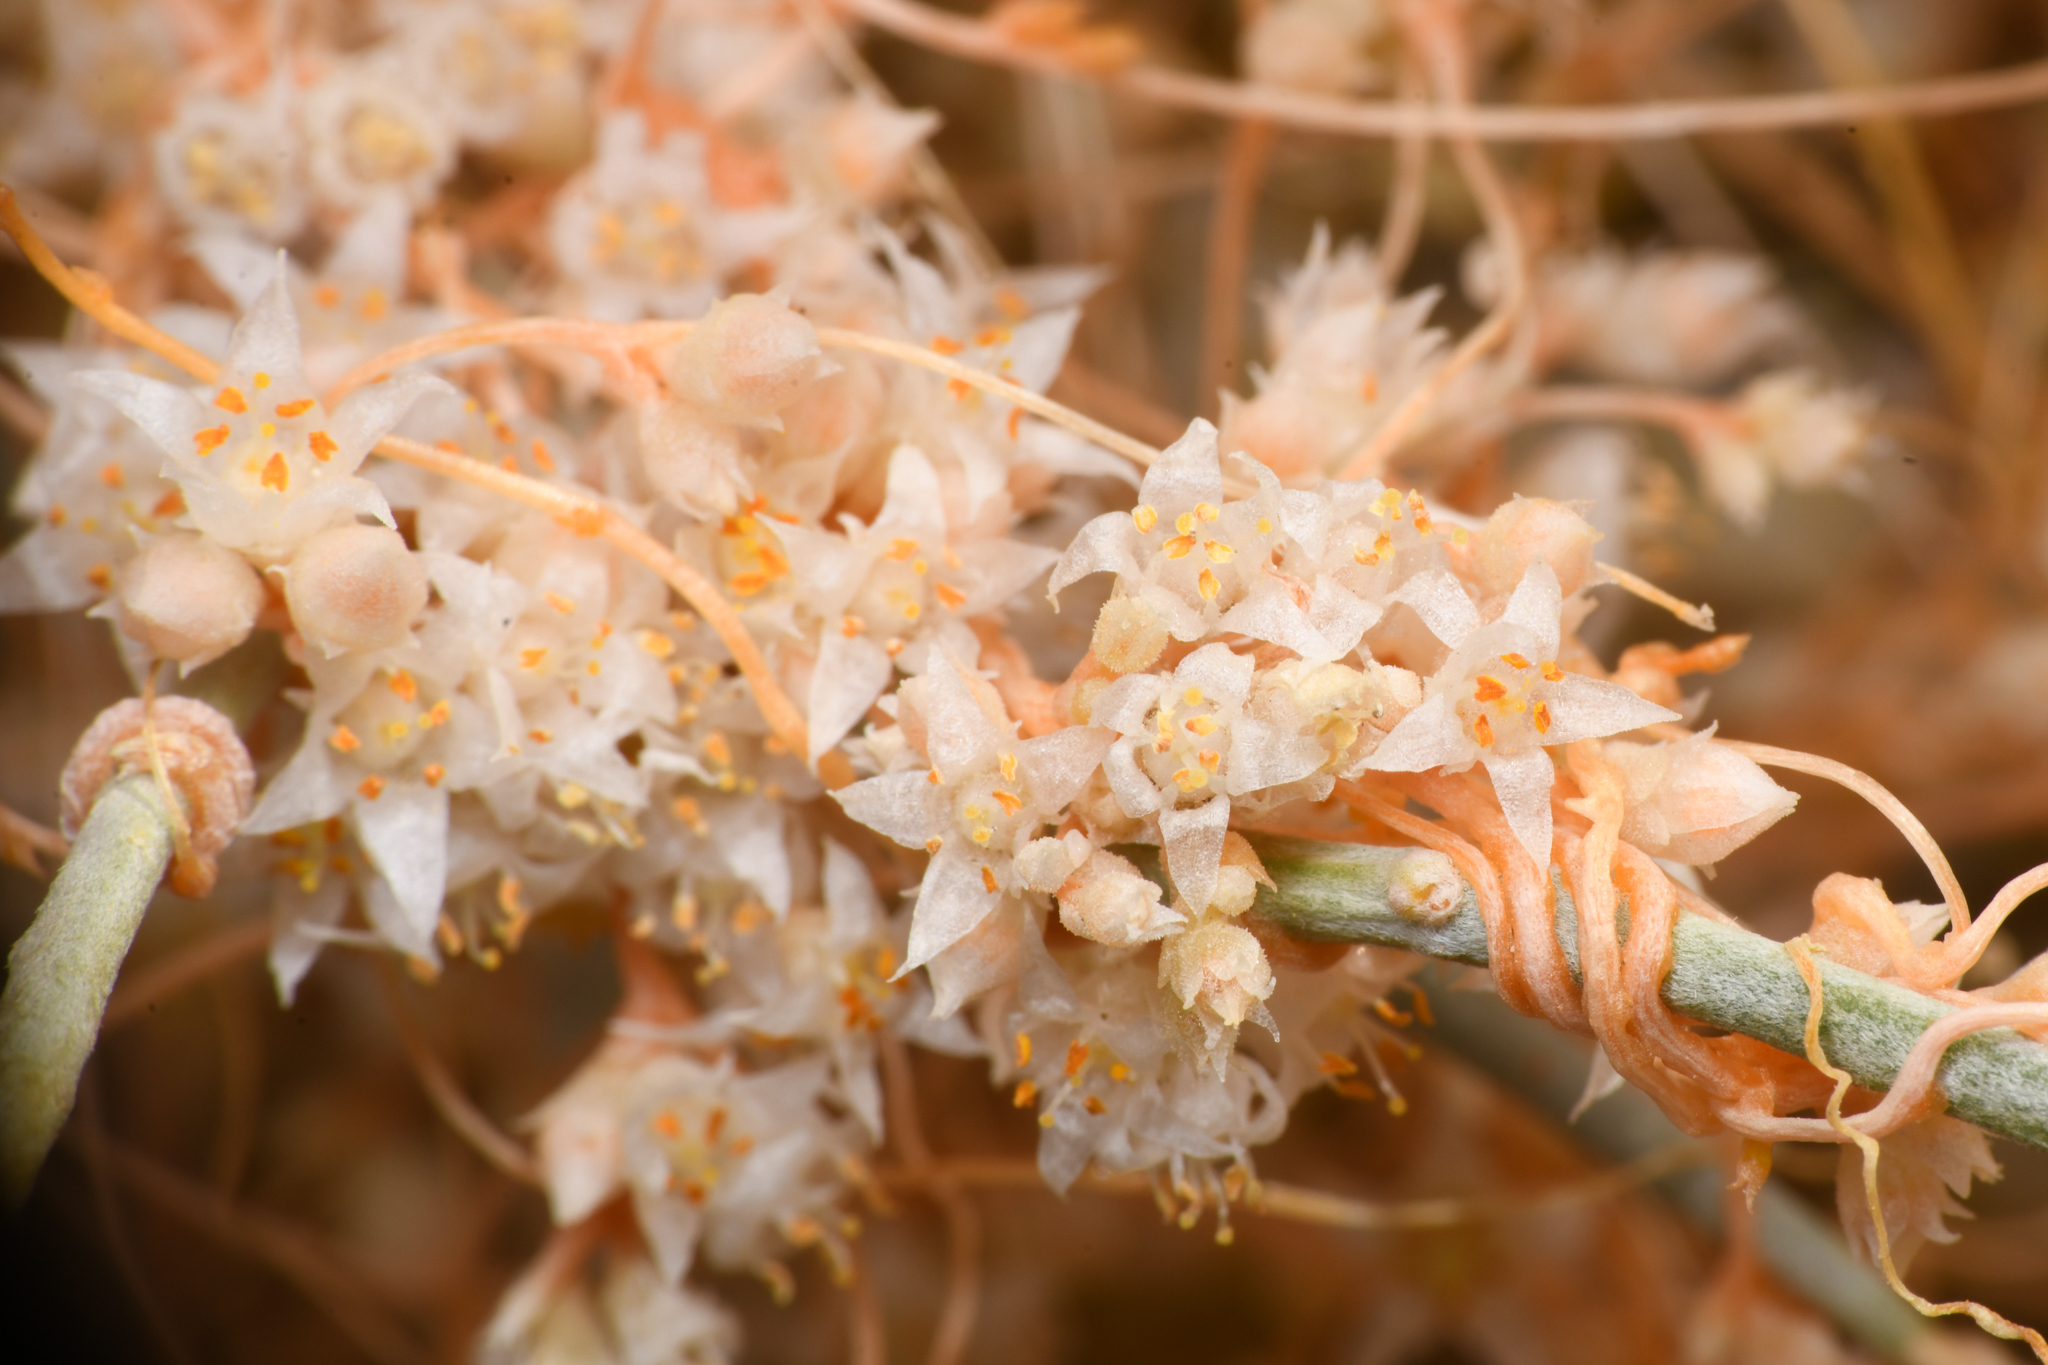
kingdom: Plantae
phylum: Tracheophyta
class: Magnoliopsida
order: Solanales
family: Convolvulaceae
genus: Cuscuta
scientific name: Cuscuta californica
